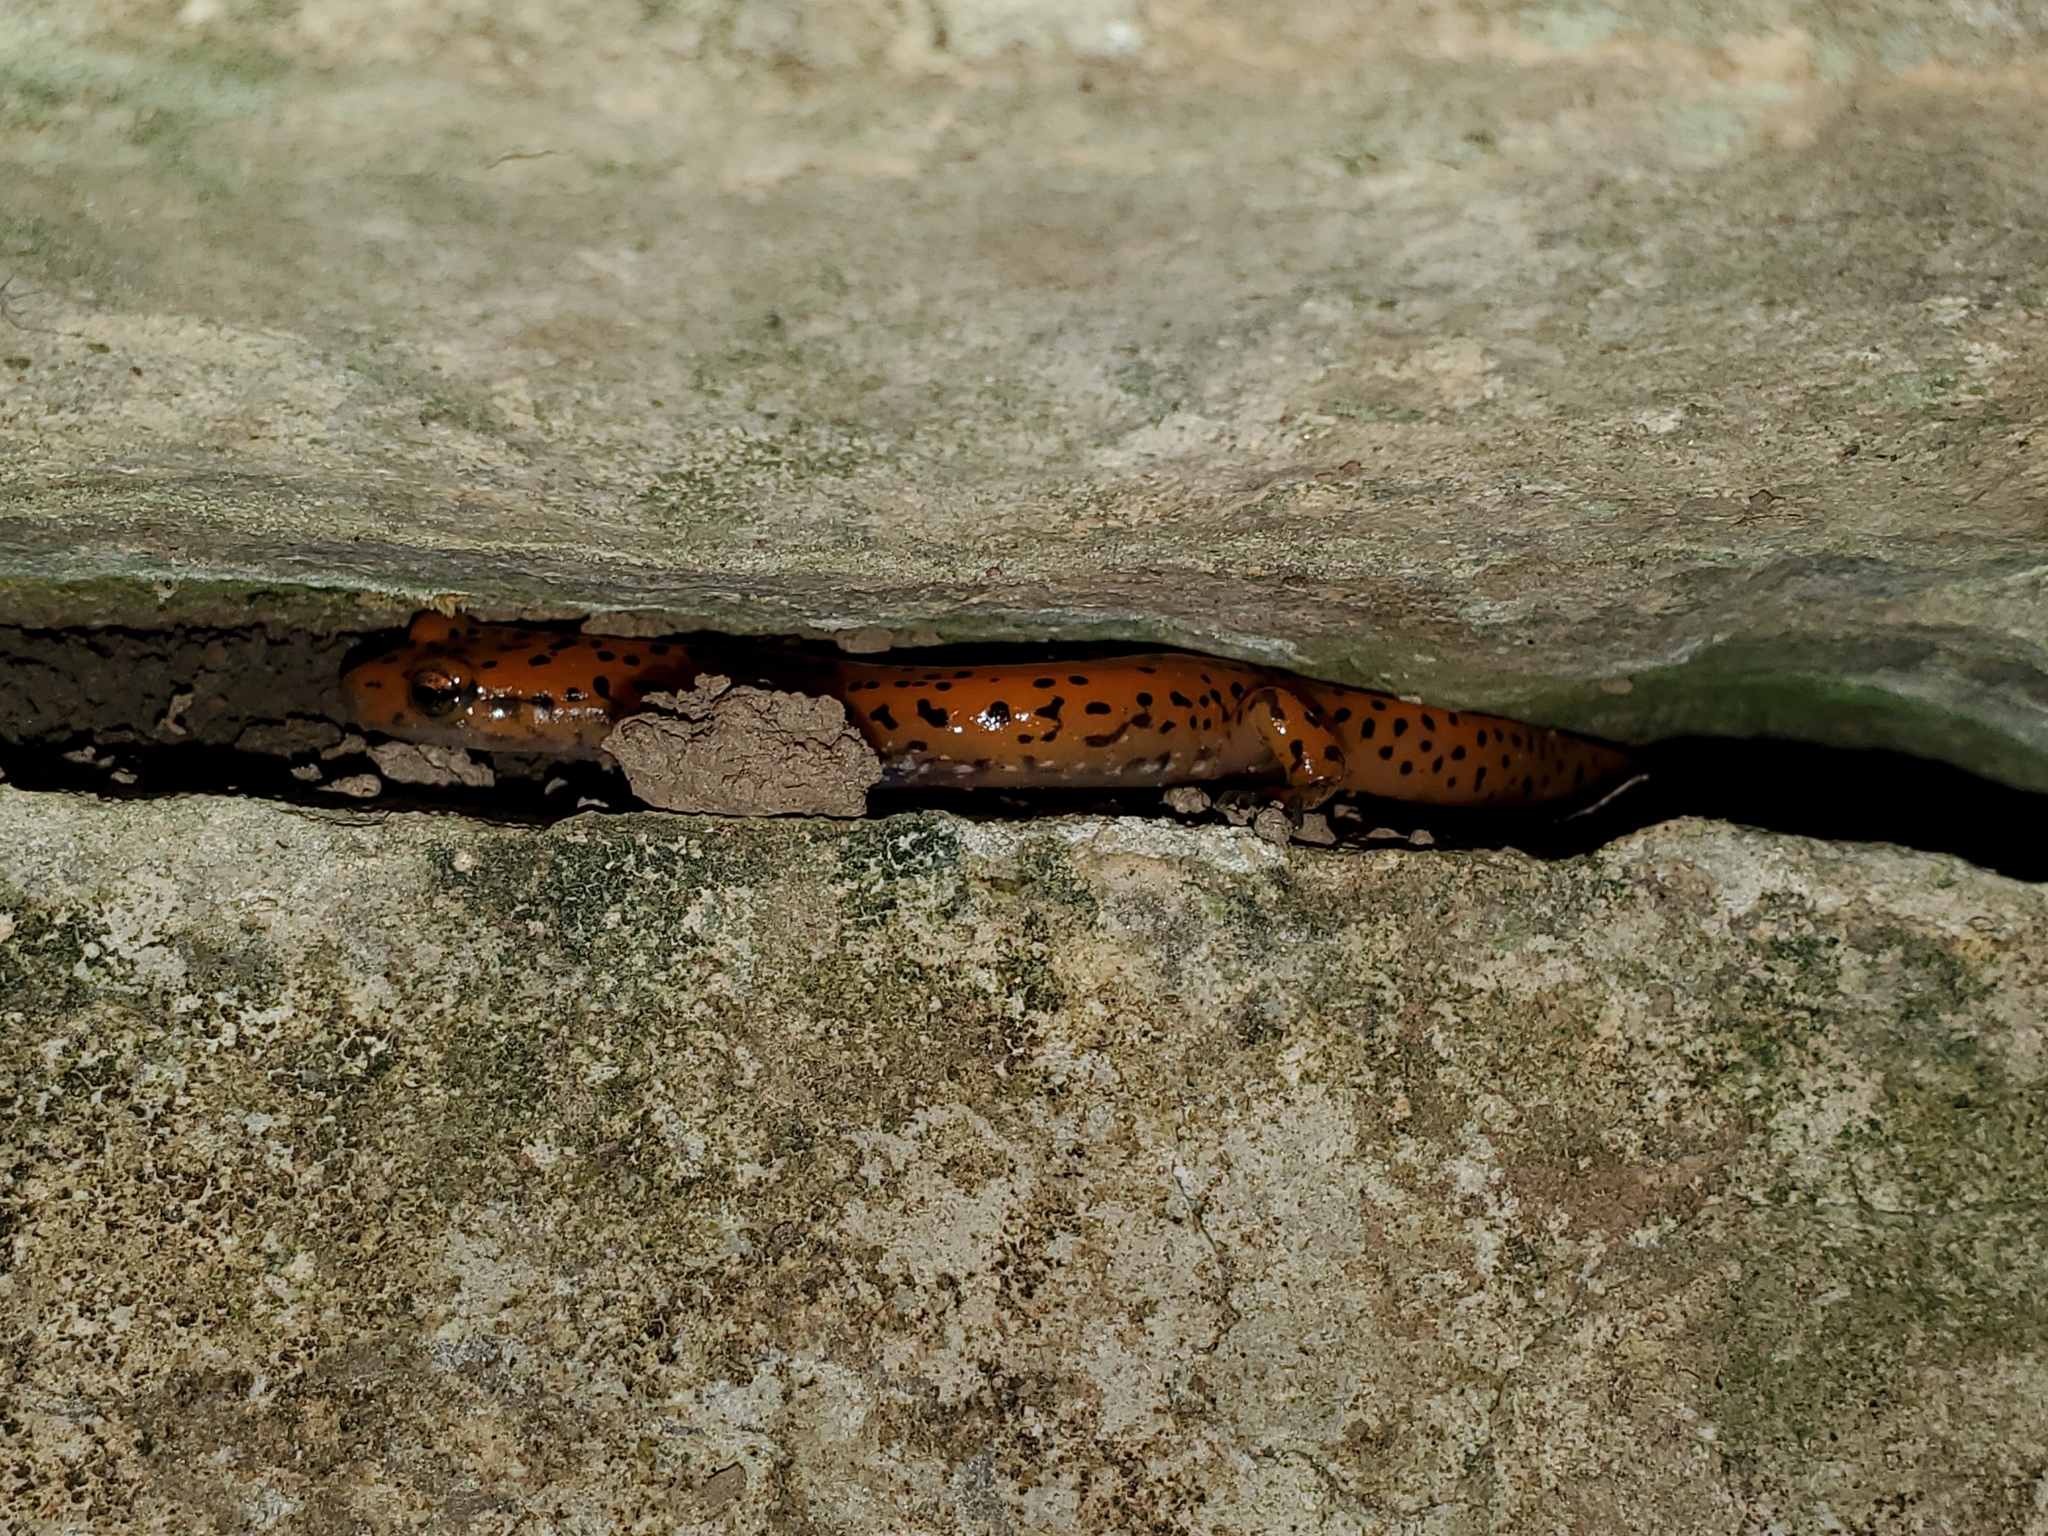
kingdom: Animalia
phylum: Chordata
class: Amphibia
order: Caudata
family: Plethodontidae
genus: Eurycea
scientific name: Eurycea lucifuga
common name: Cave salamander
